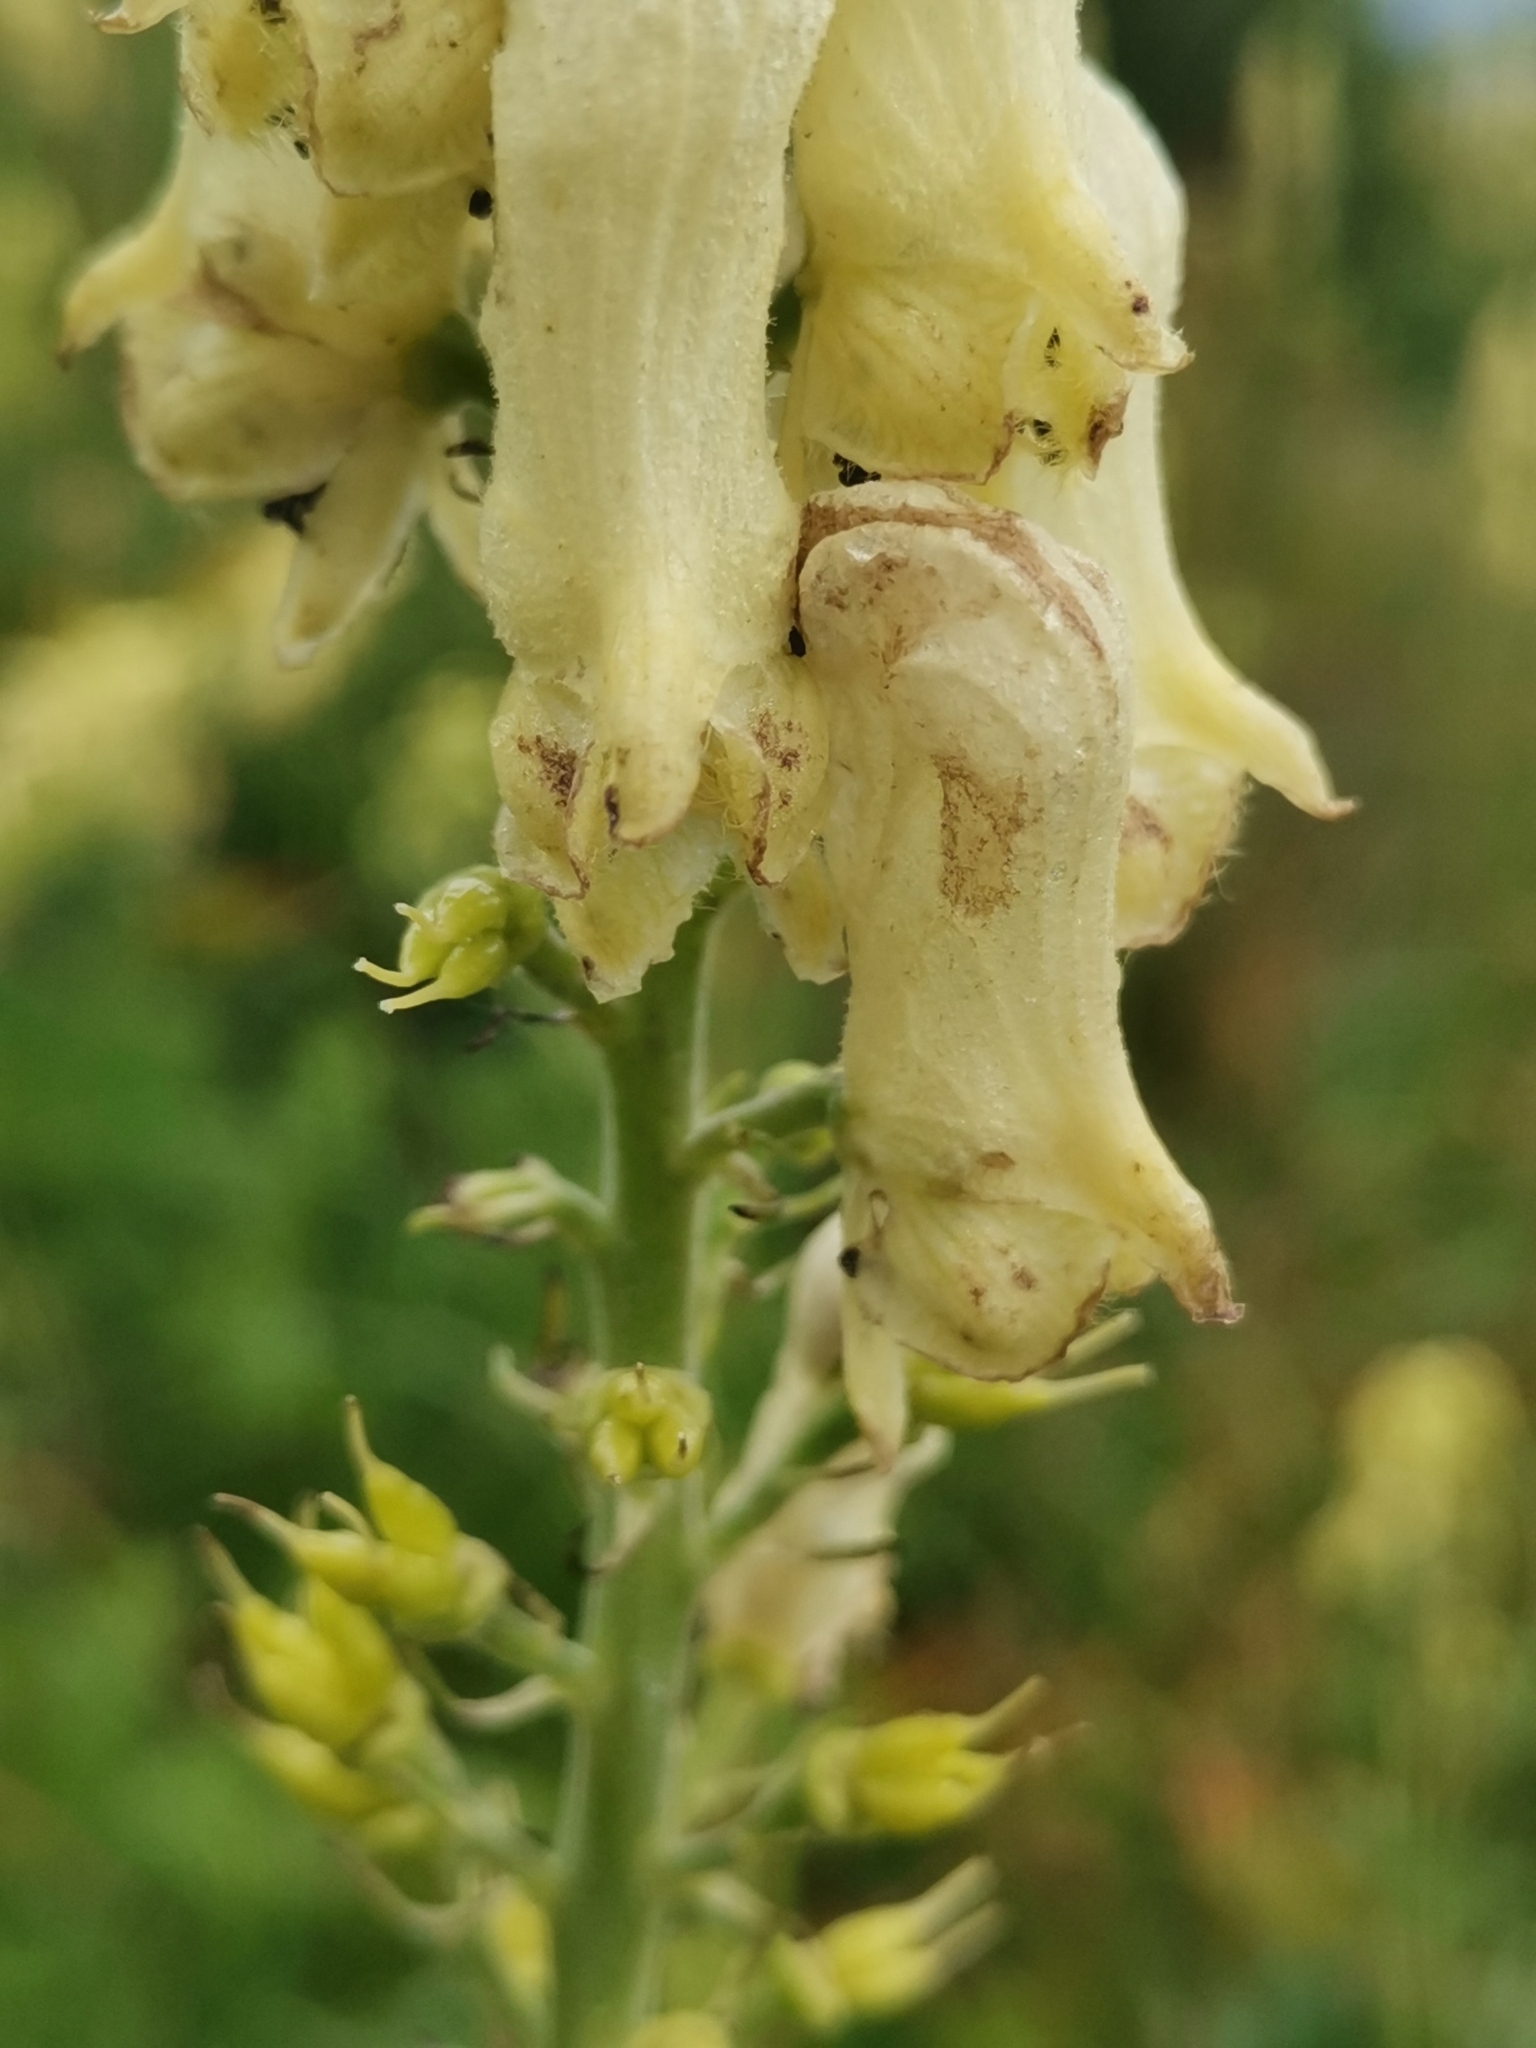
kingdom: Plantae
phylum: Tracheophyta
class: Magnoliopsida
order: Ranunculales
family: Ranunculaceae
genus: Aconitum
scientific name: Aconitum lamarckii
